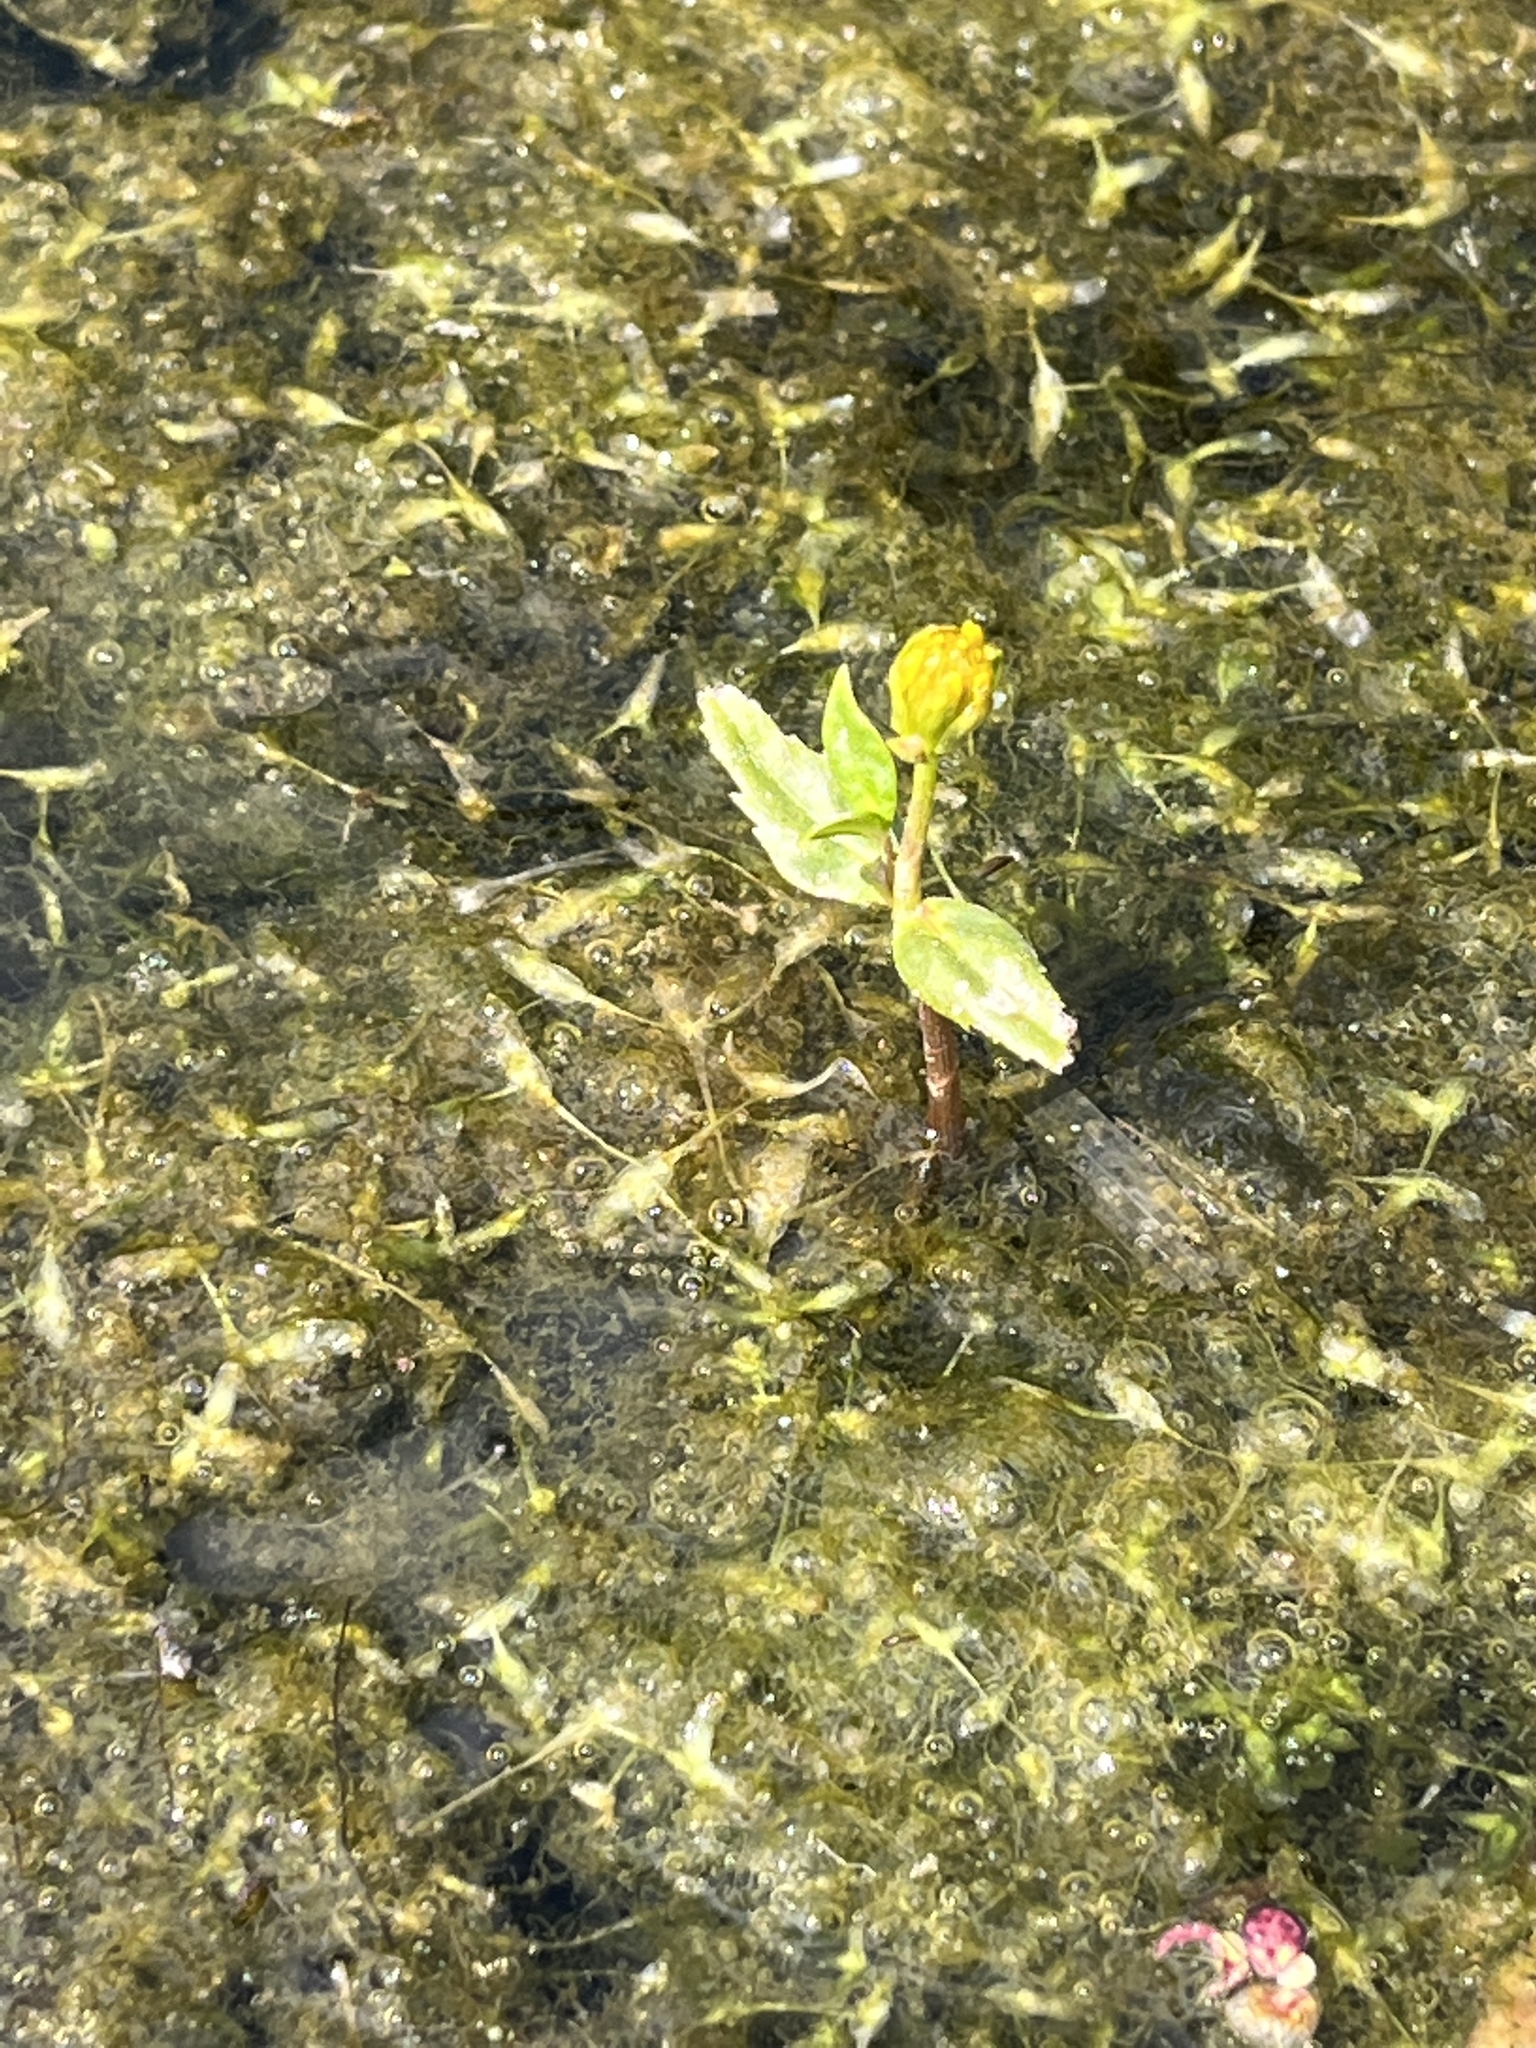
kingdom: Plantae
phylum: Tracheophyta
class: Magnoliopsida
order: Asterales
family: Asteraceae
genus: Bidens
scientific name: Bidens beckii
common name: Beck's beggarticks
